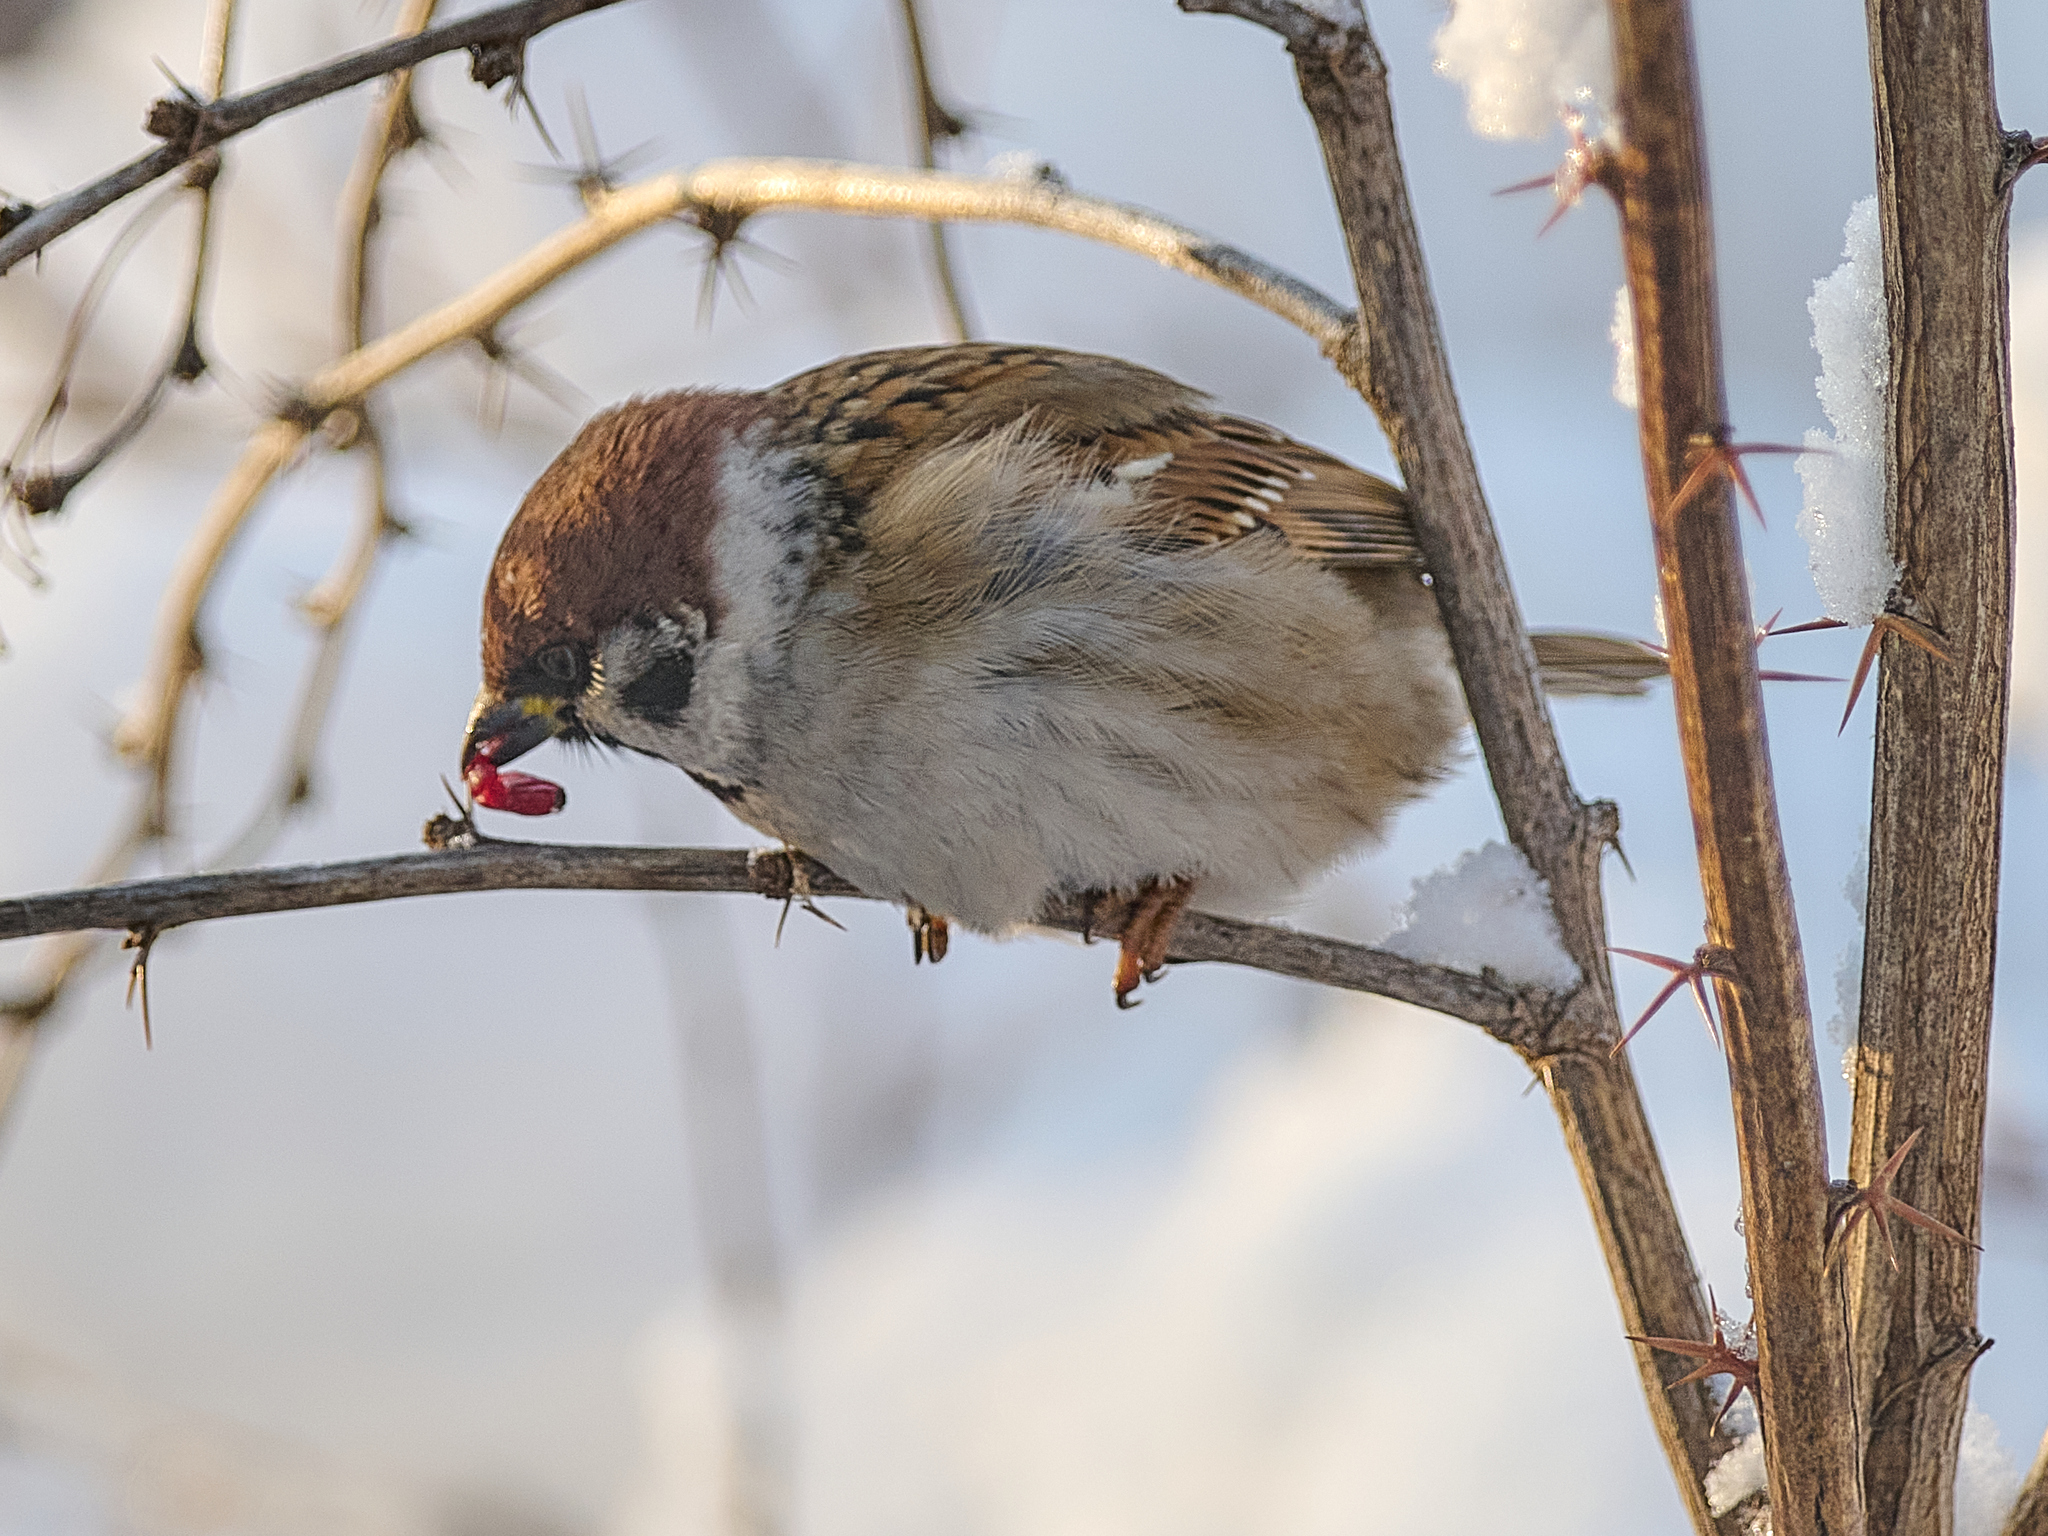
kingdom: Animalia
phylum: Chordata
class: Aves
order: Passeriformes
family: Passeridae
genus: Passer
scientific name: Passer montanus
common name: Eurasian tree sparrow
